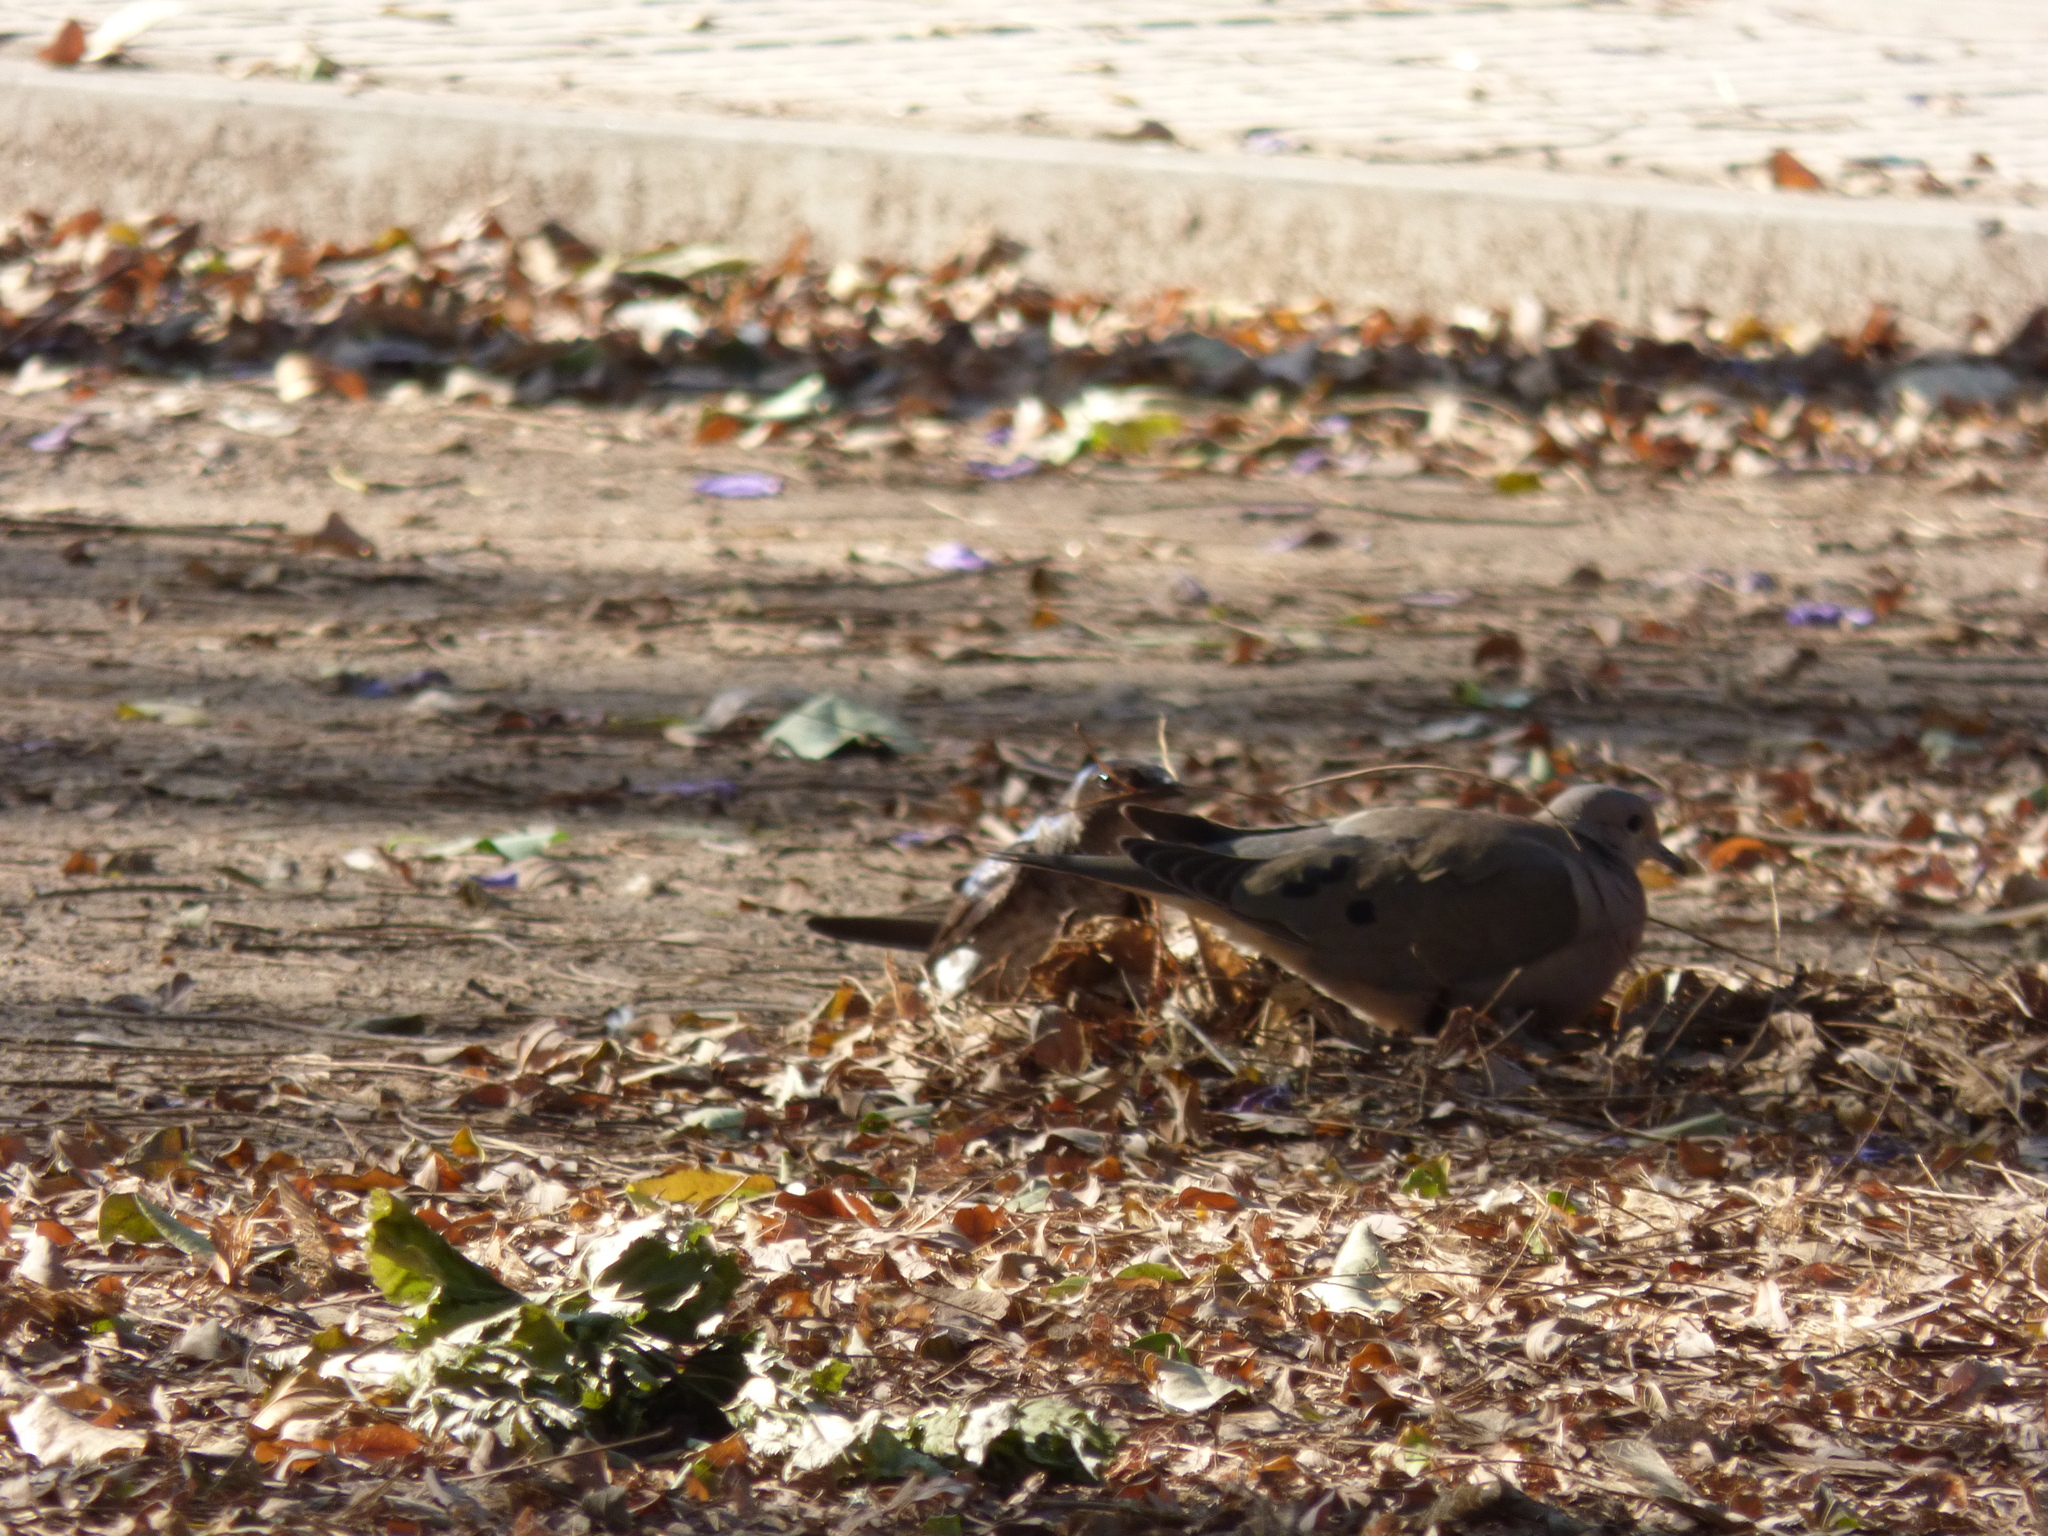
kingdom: Animalia
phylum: Chordata
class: Aves
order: Columbiformes
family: Columbidae
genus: Zenaida
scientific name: Zenaida auriculata
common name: Eared dove
